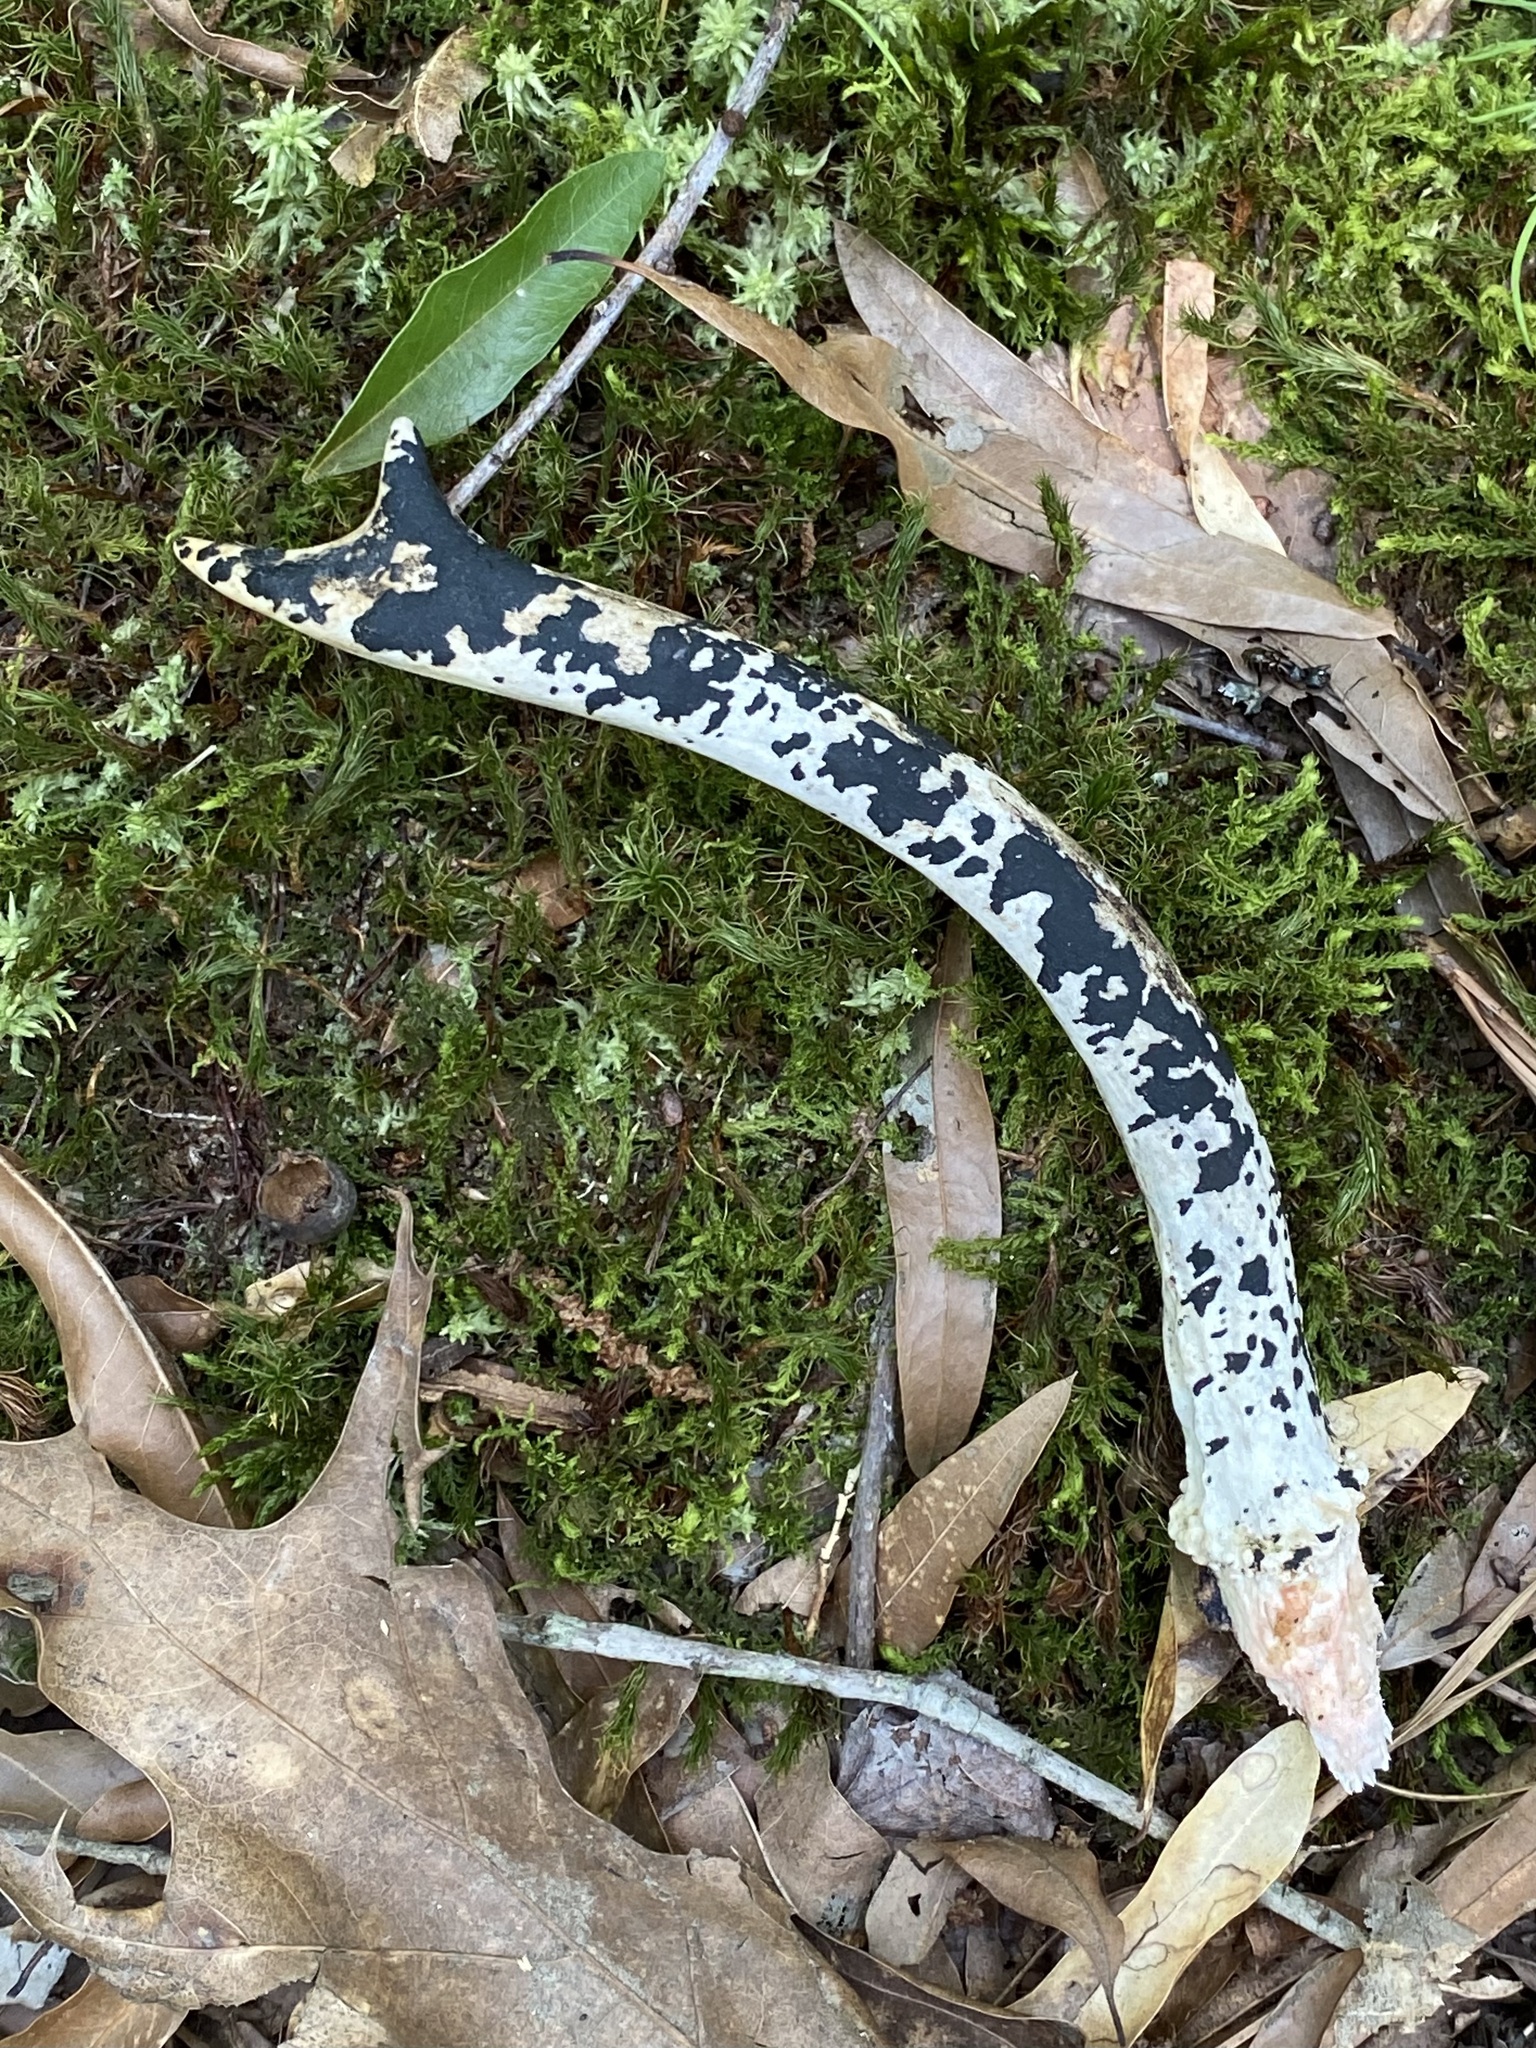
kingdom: Animalia
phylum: Chordata
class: Mammalia
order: Artiodactyla
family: Cervidae
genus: Odocoileus
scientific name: Odocoileus virginianus
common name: White-tailed deer
